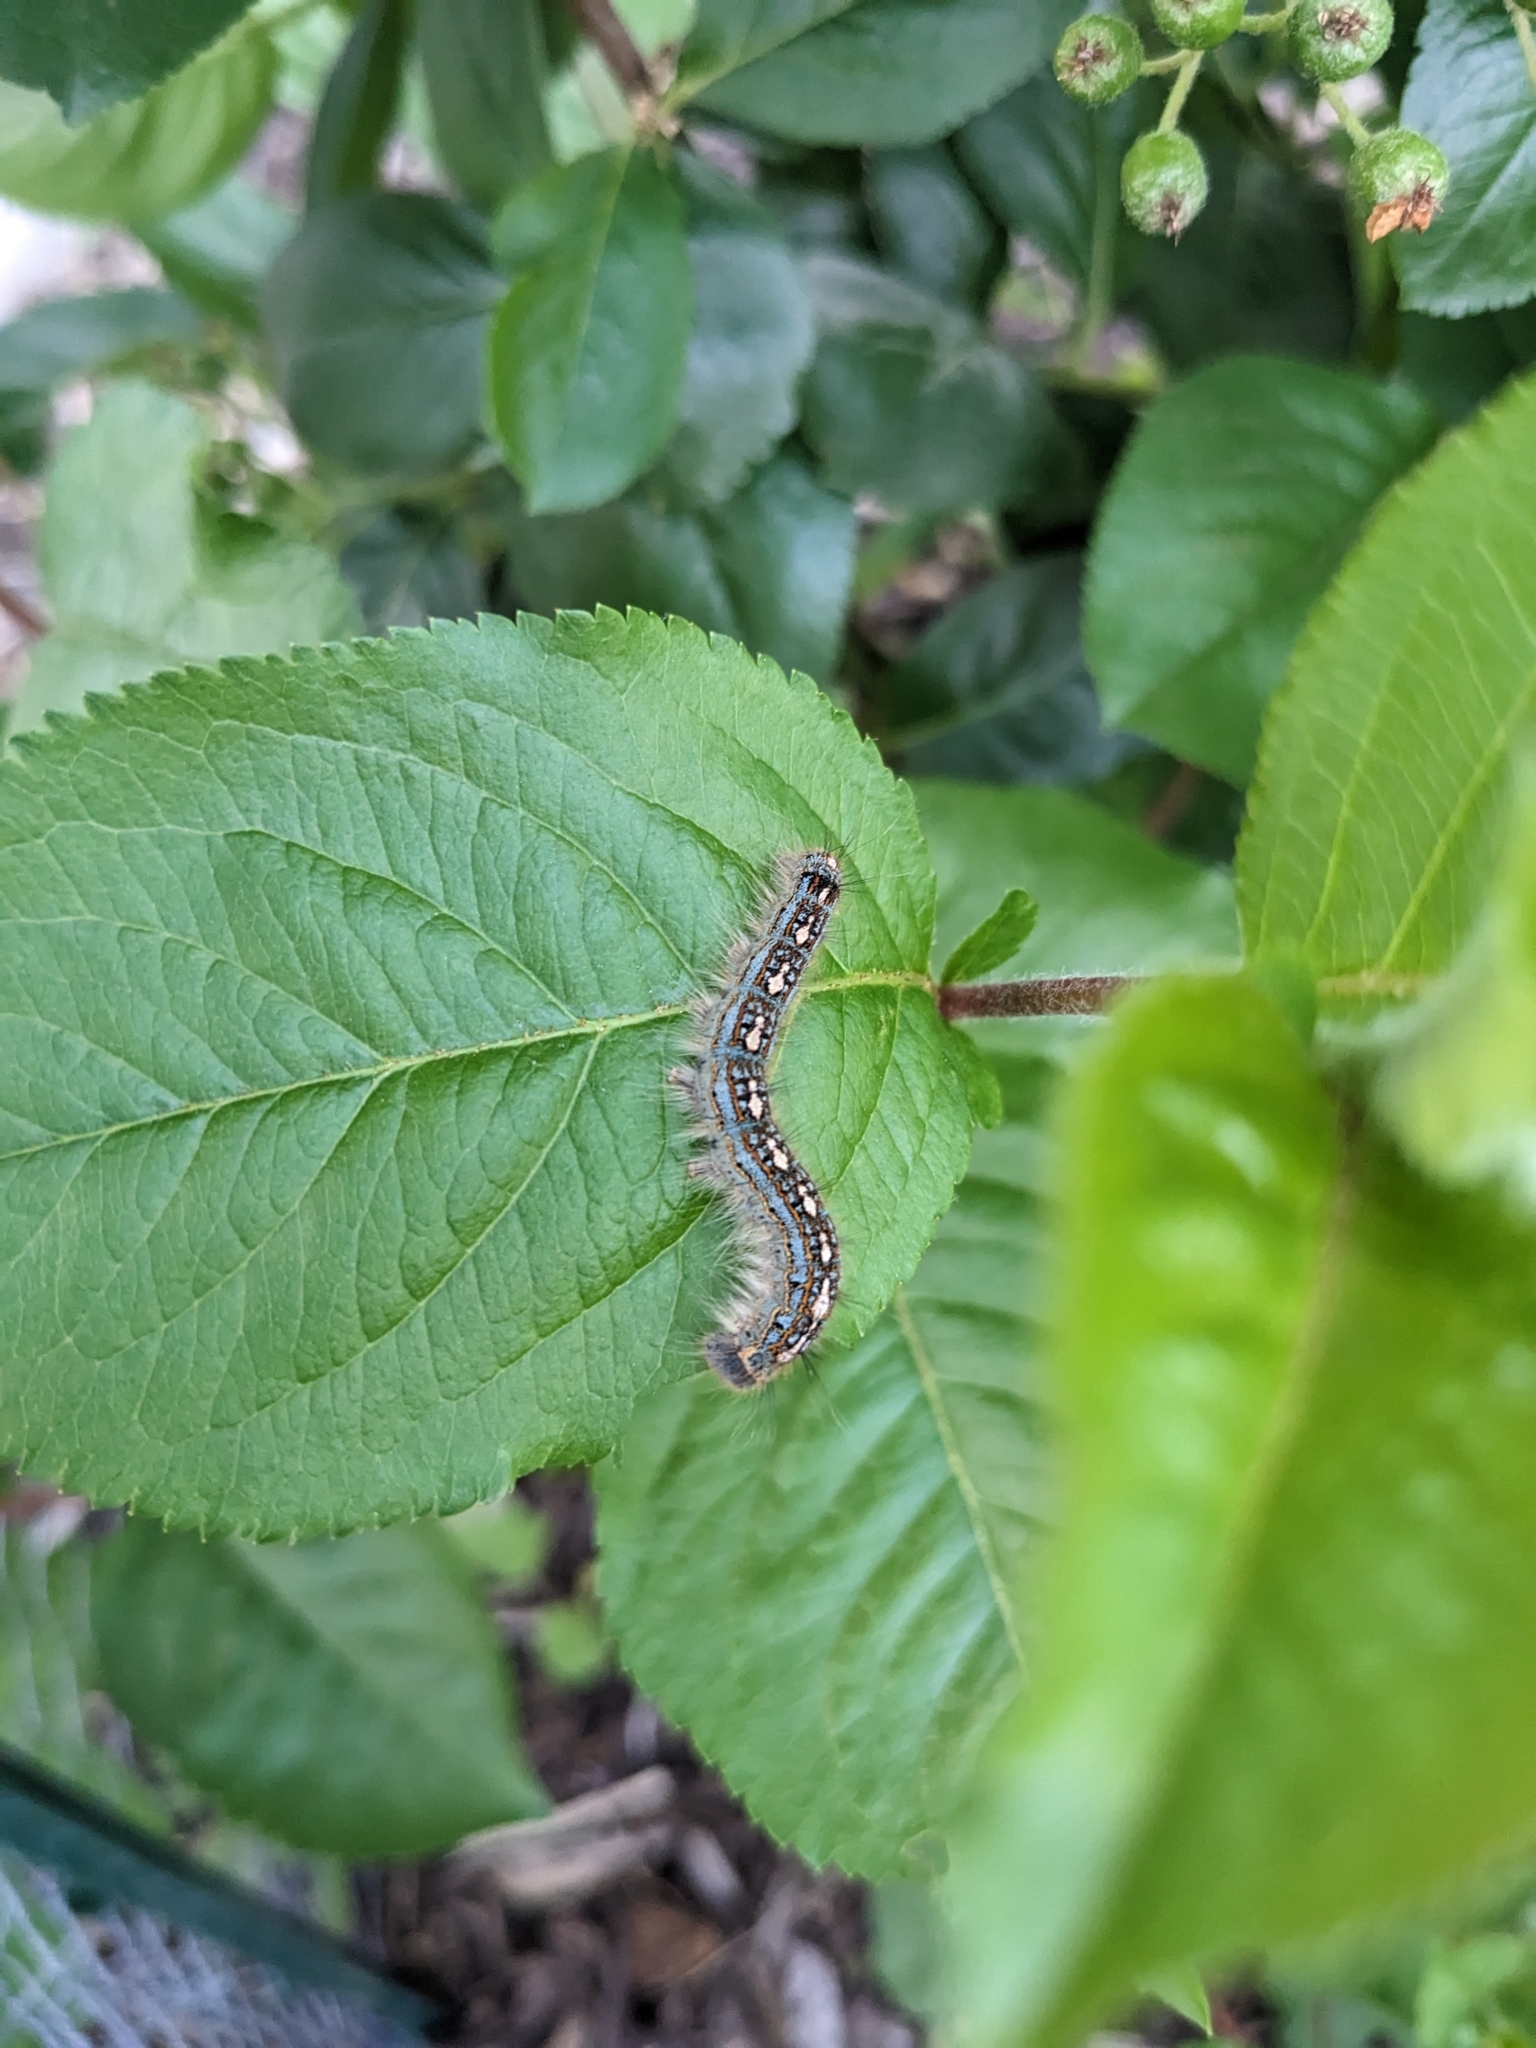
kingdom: Animalia
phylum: Arthropoda
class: Insecta
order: Lepidoptera
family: Lasiocampidae
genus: Malacosoma
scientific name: Malacosoma disstria
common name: Forest tent caterpillar
